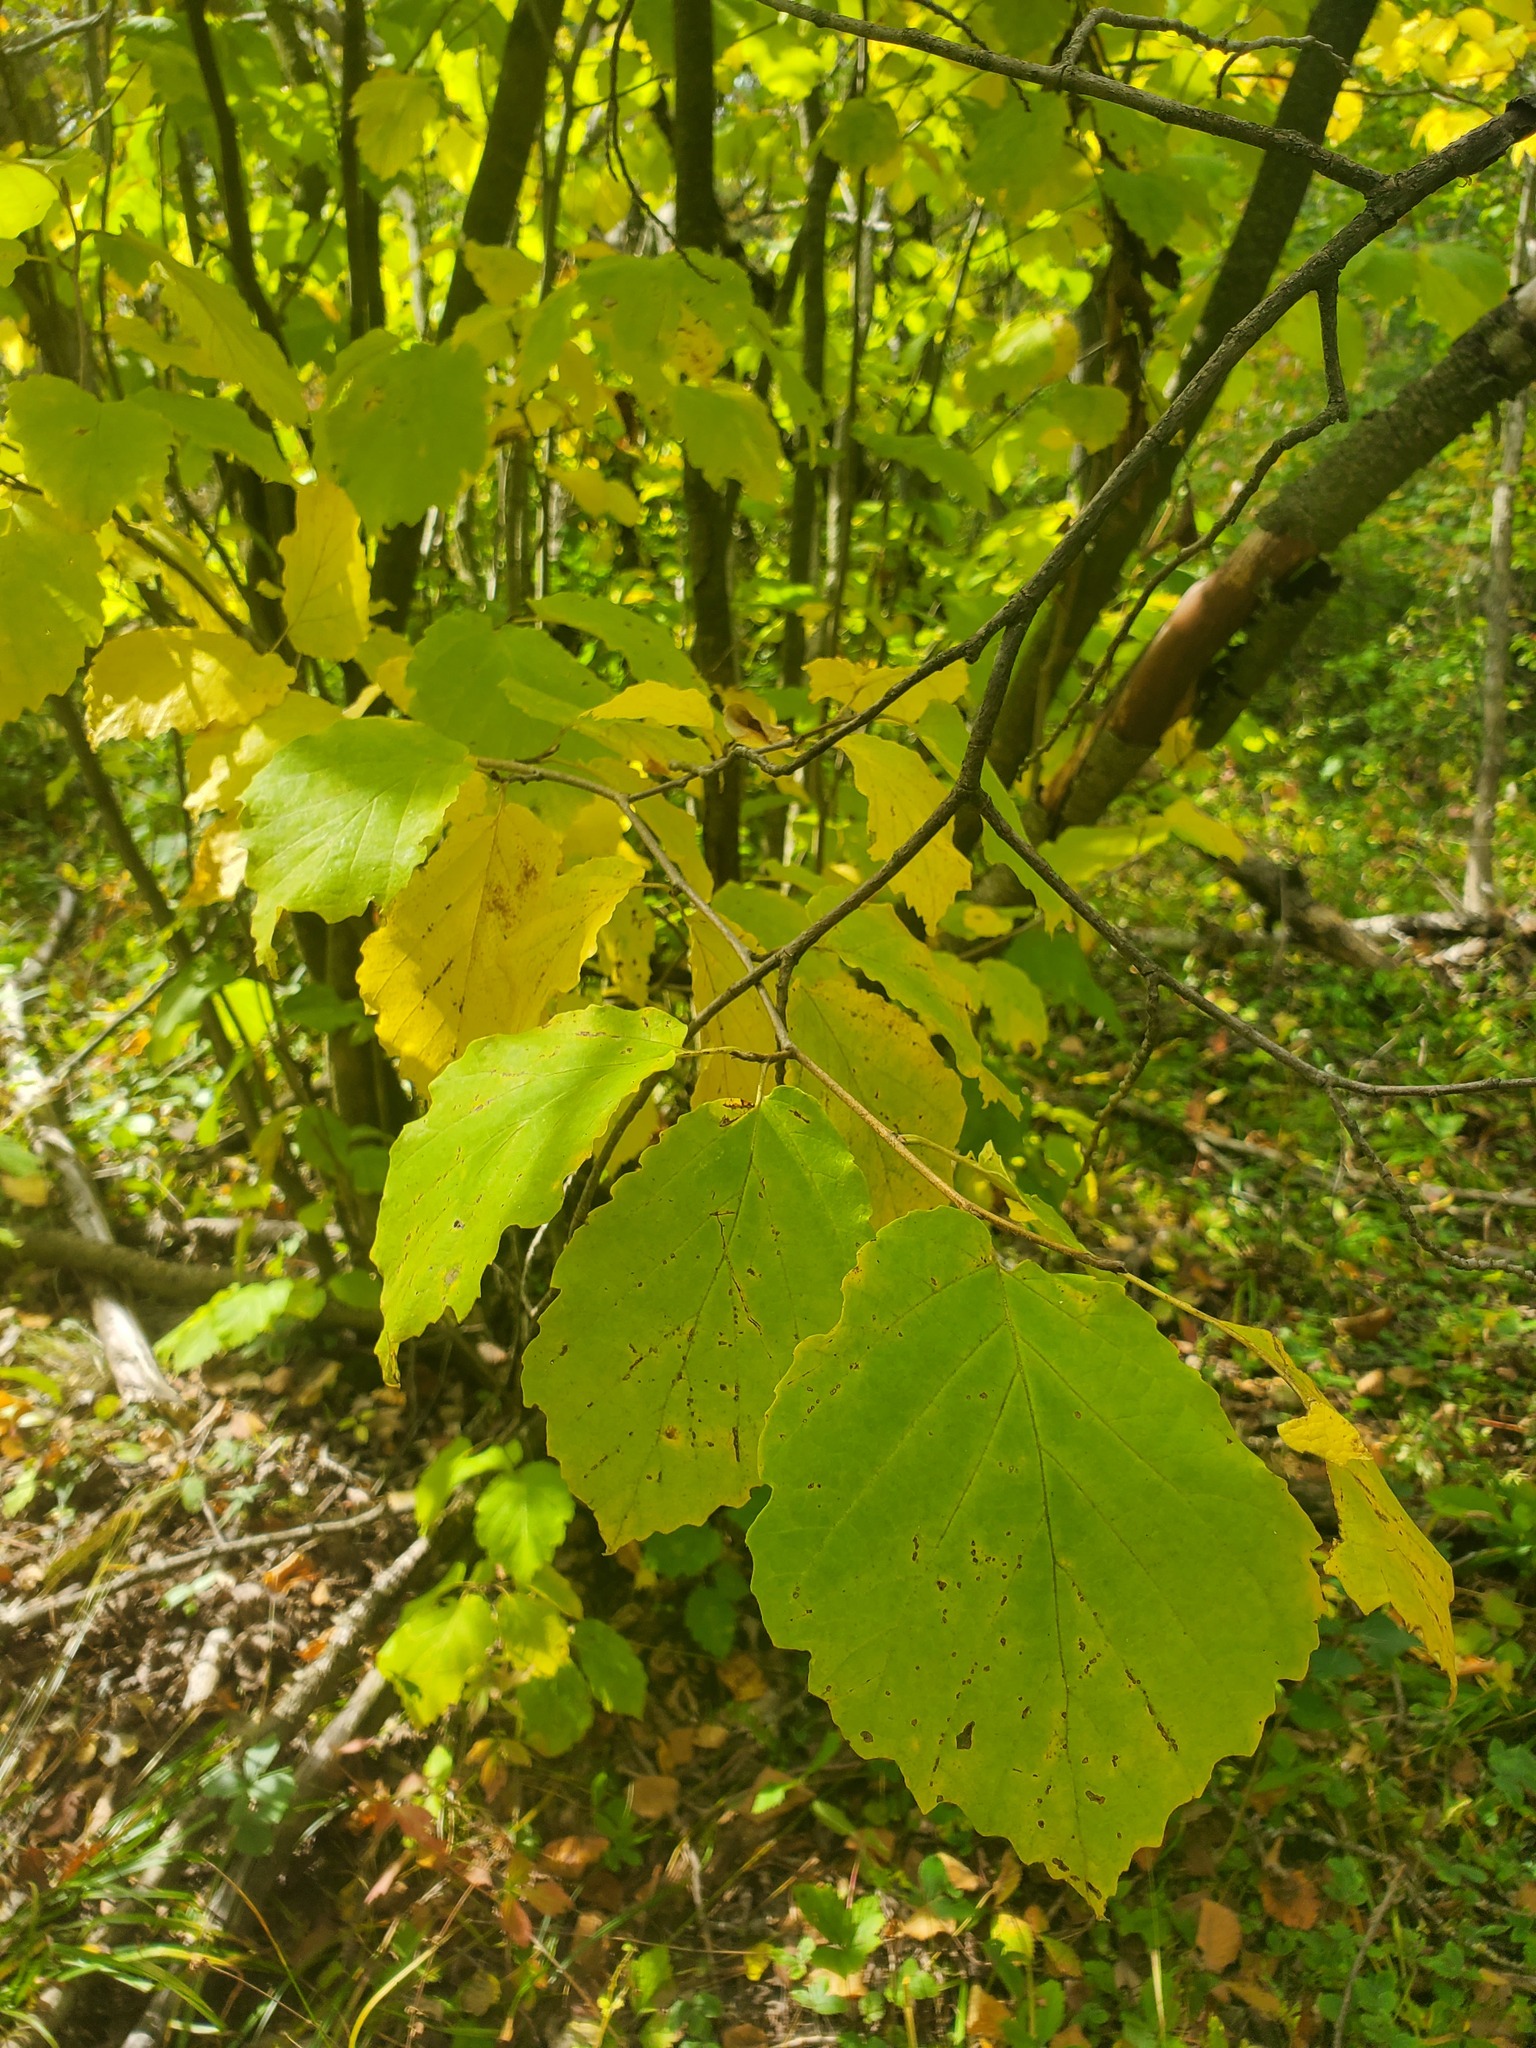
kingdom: Plantae
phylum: Tracheophyta
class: Magnoliopsida
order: Saxifragales
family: Hamamelidaceae
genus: Hamamelis
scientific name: Hamamelis virginiana
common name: Witch-hazel
